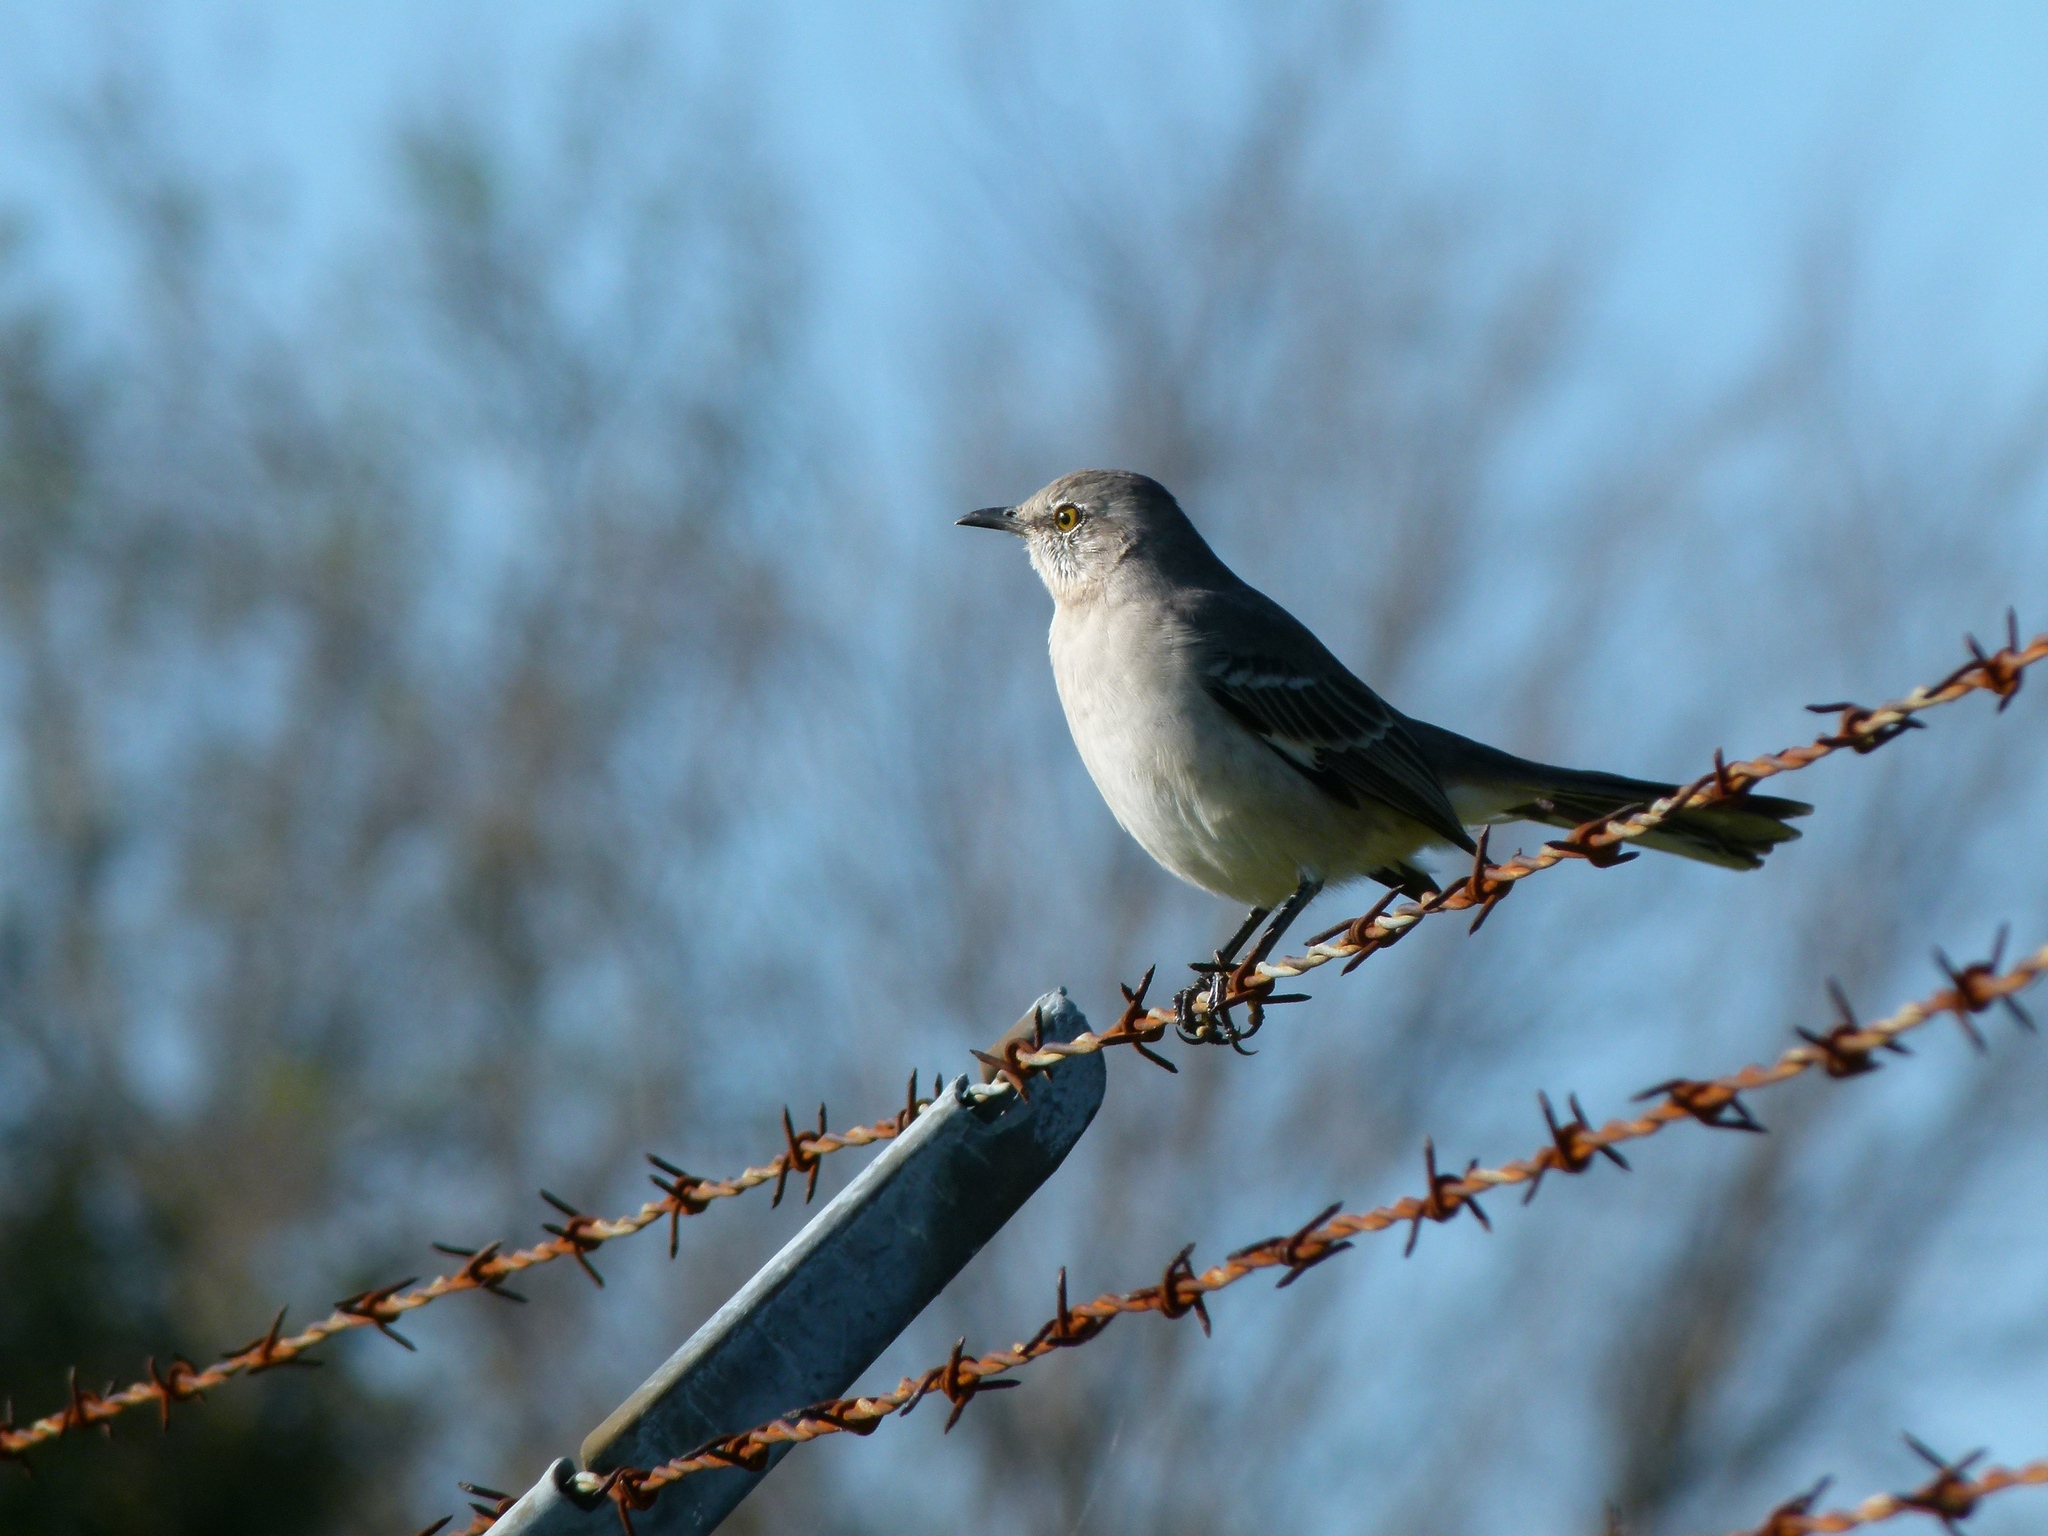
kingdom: Animalia
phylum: Chordata
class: Aves
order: Passeriformes
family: Mimidae
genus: Mimus
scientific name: Mimus polyglottos
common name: Northern mockingbird
